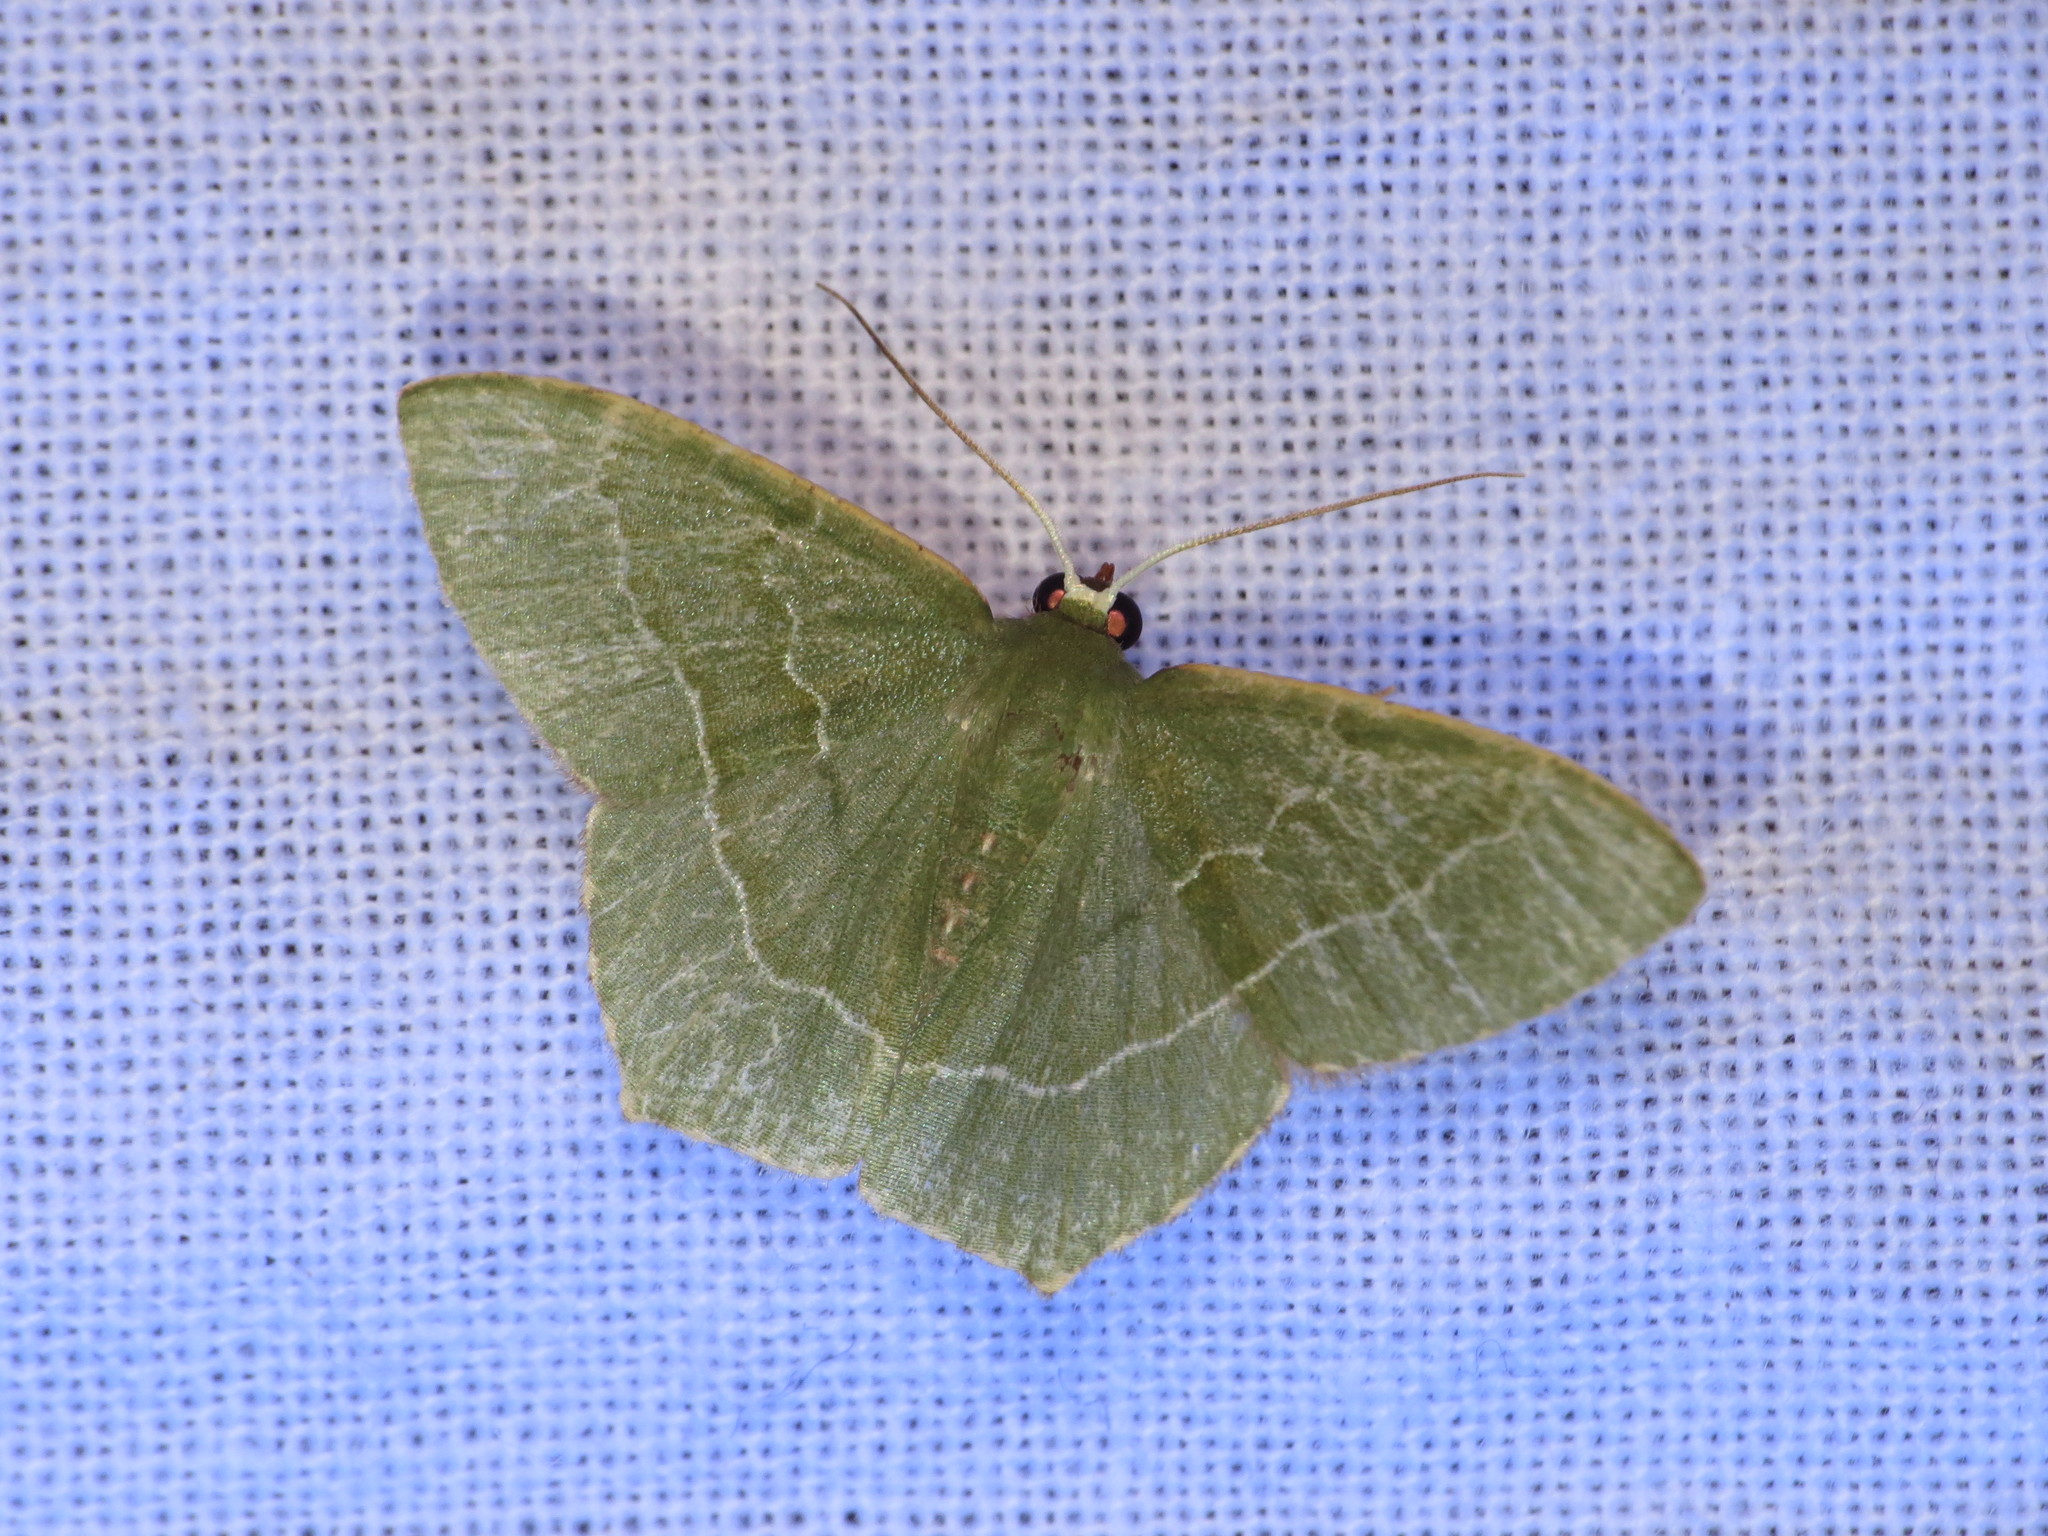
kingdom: Animalia
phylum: Arthropoda
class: Insecta
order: Lepidoptera
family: Geometridae
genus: Hemithea
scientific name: Hemithea wuka
